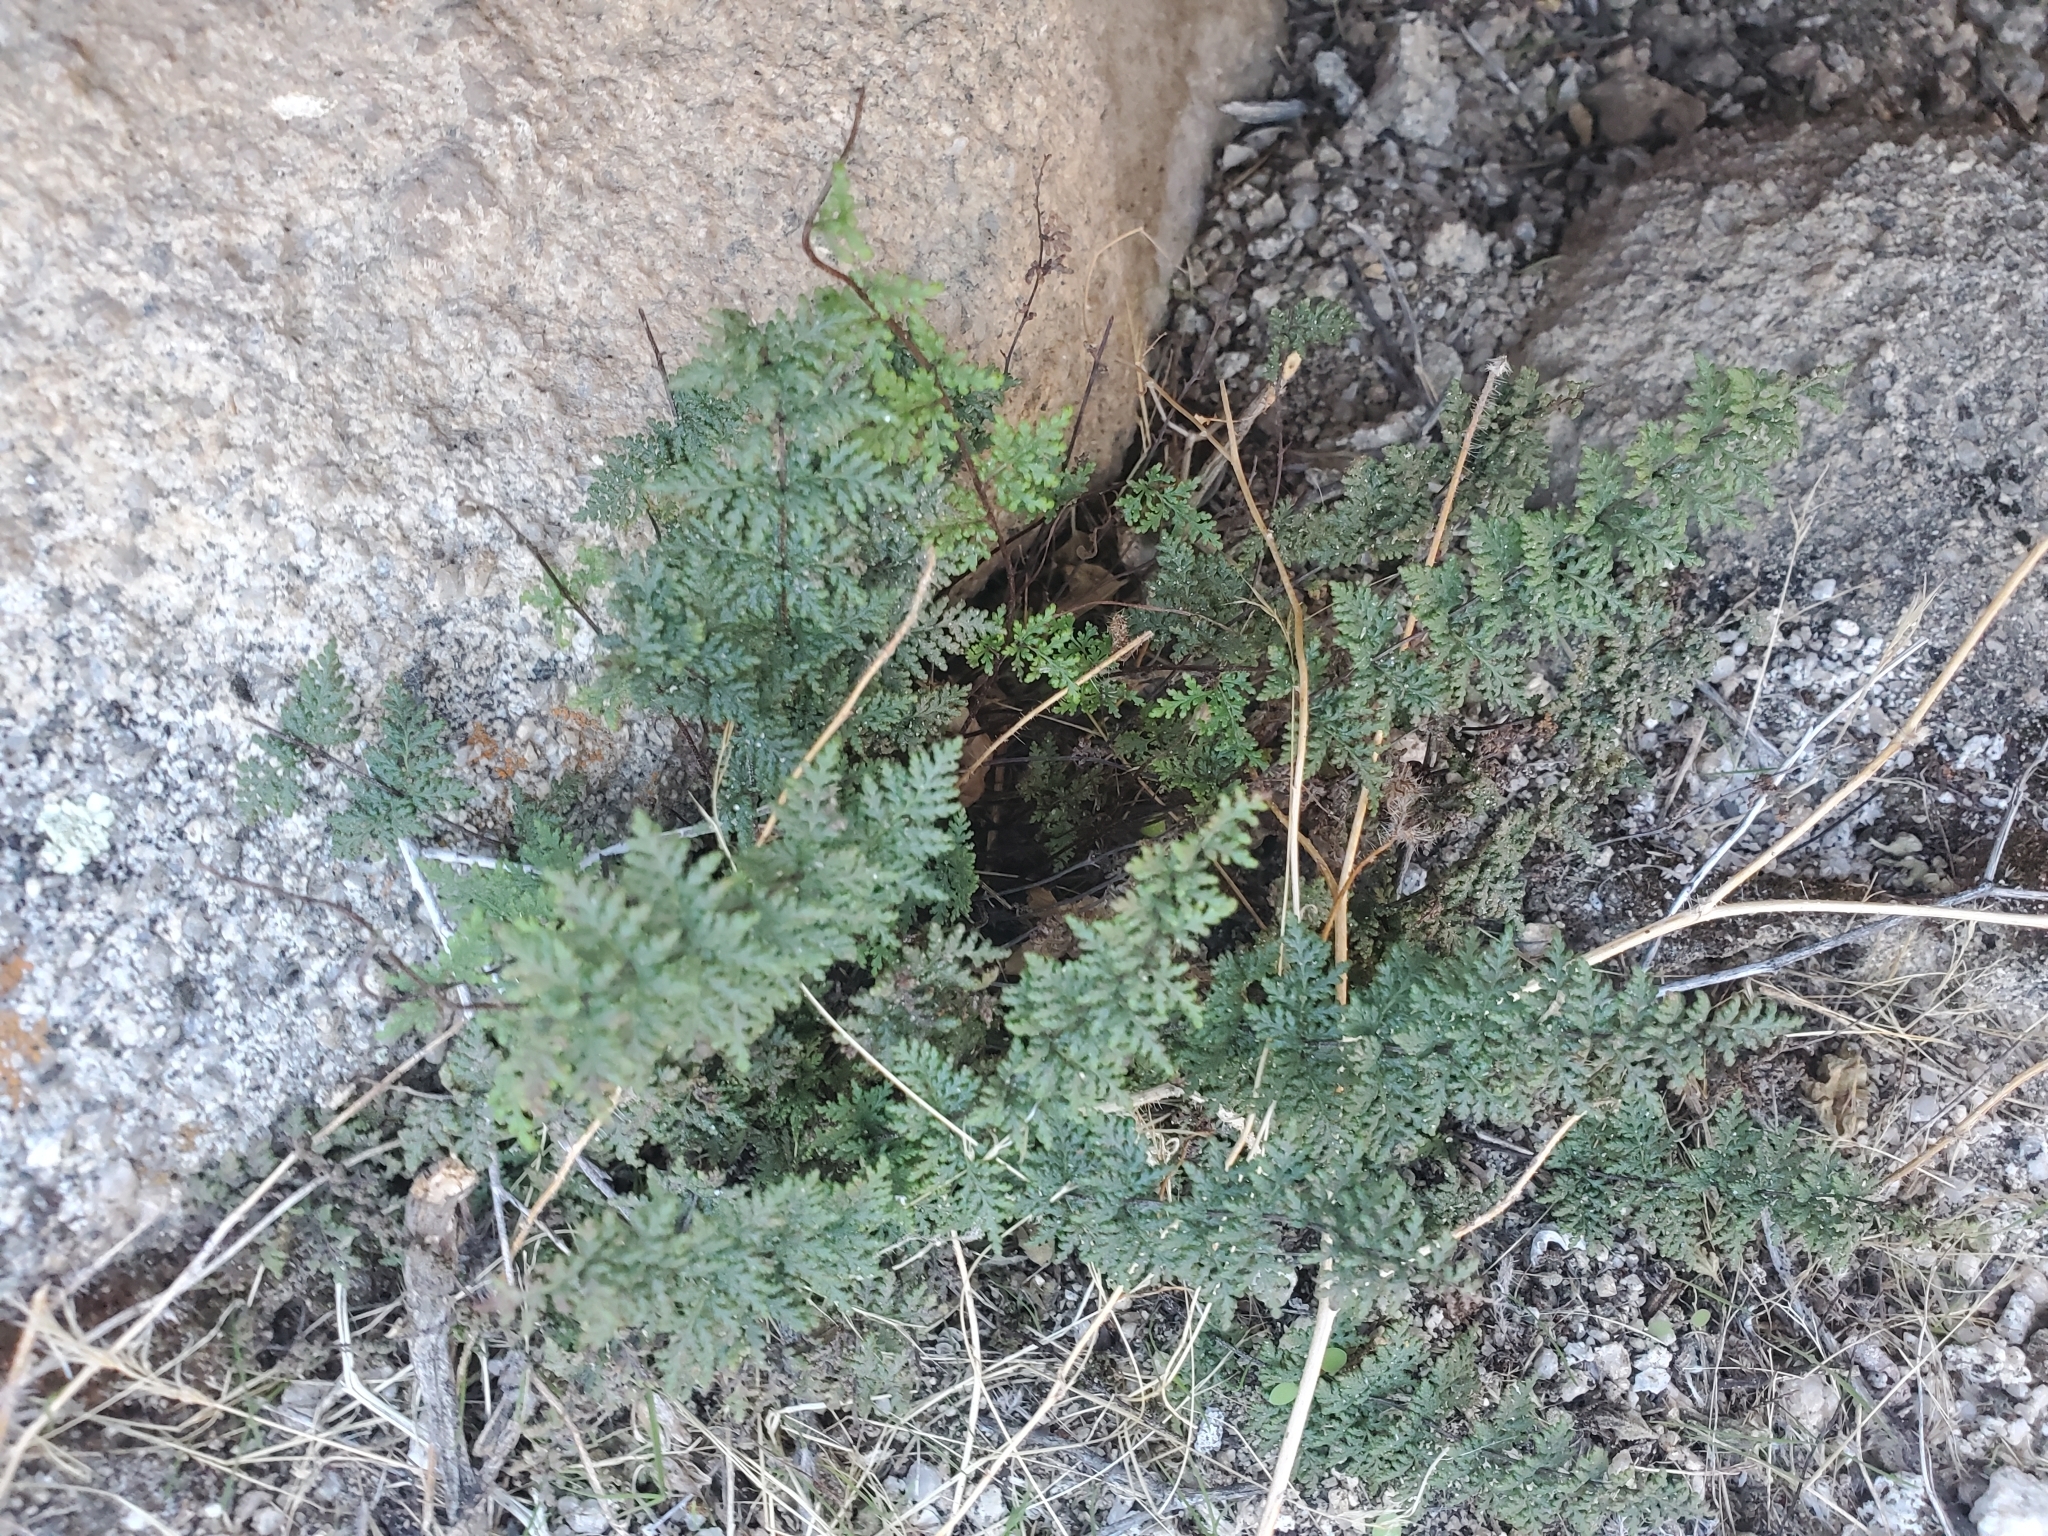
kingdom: Plantae
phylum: Tracheophyta
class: Polypodiopsida
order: Polypodiales
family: Pteridaceae
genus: Myriopteris
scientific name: Myriopteris viscida
